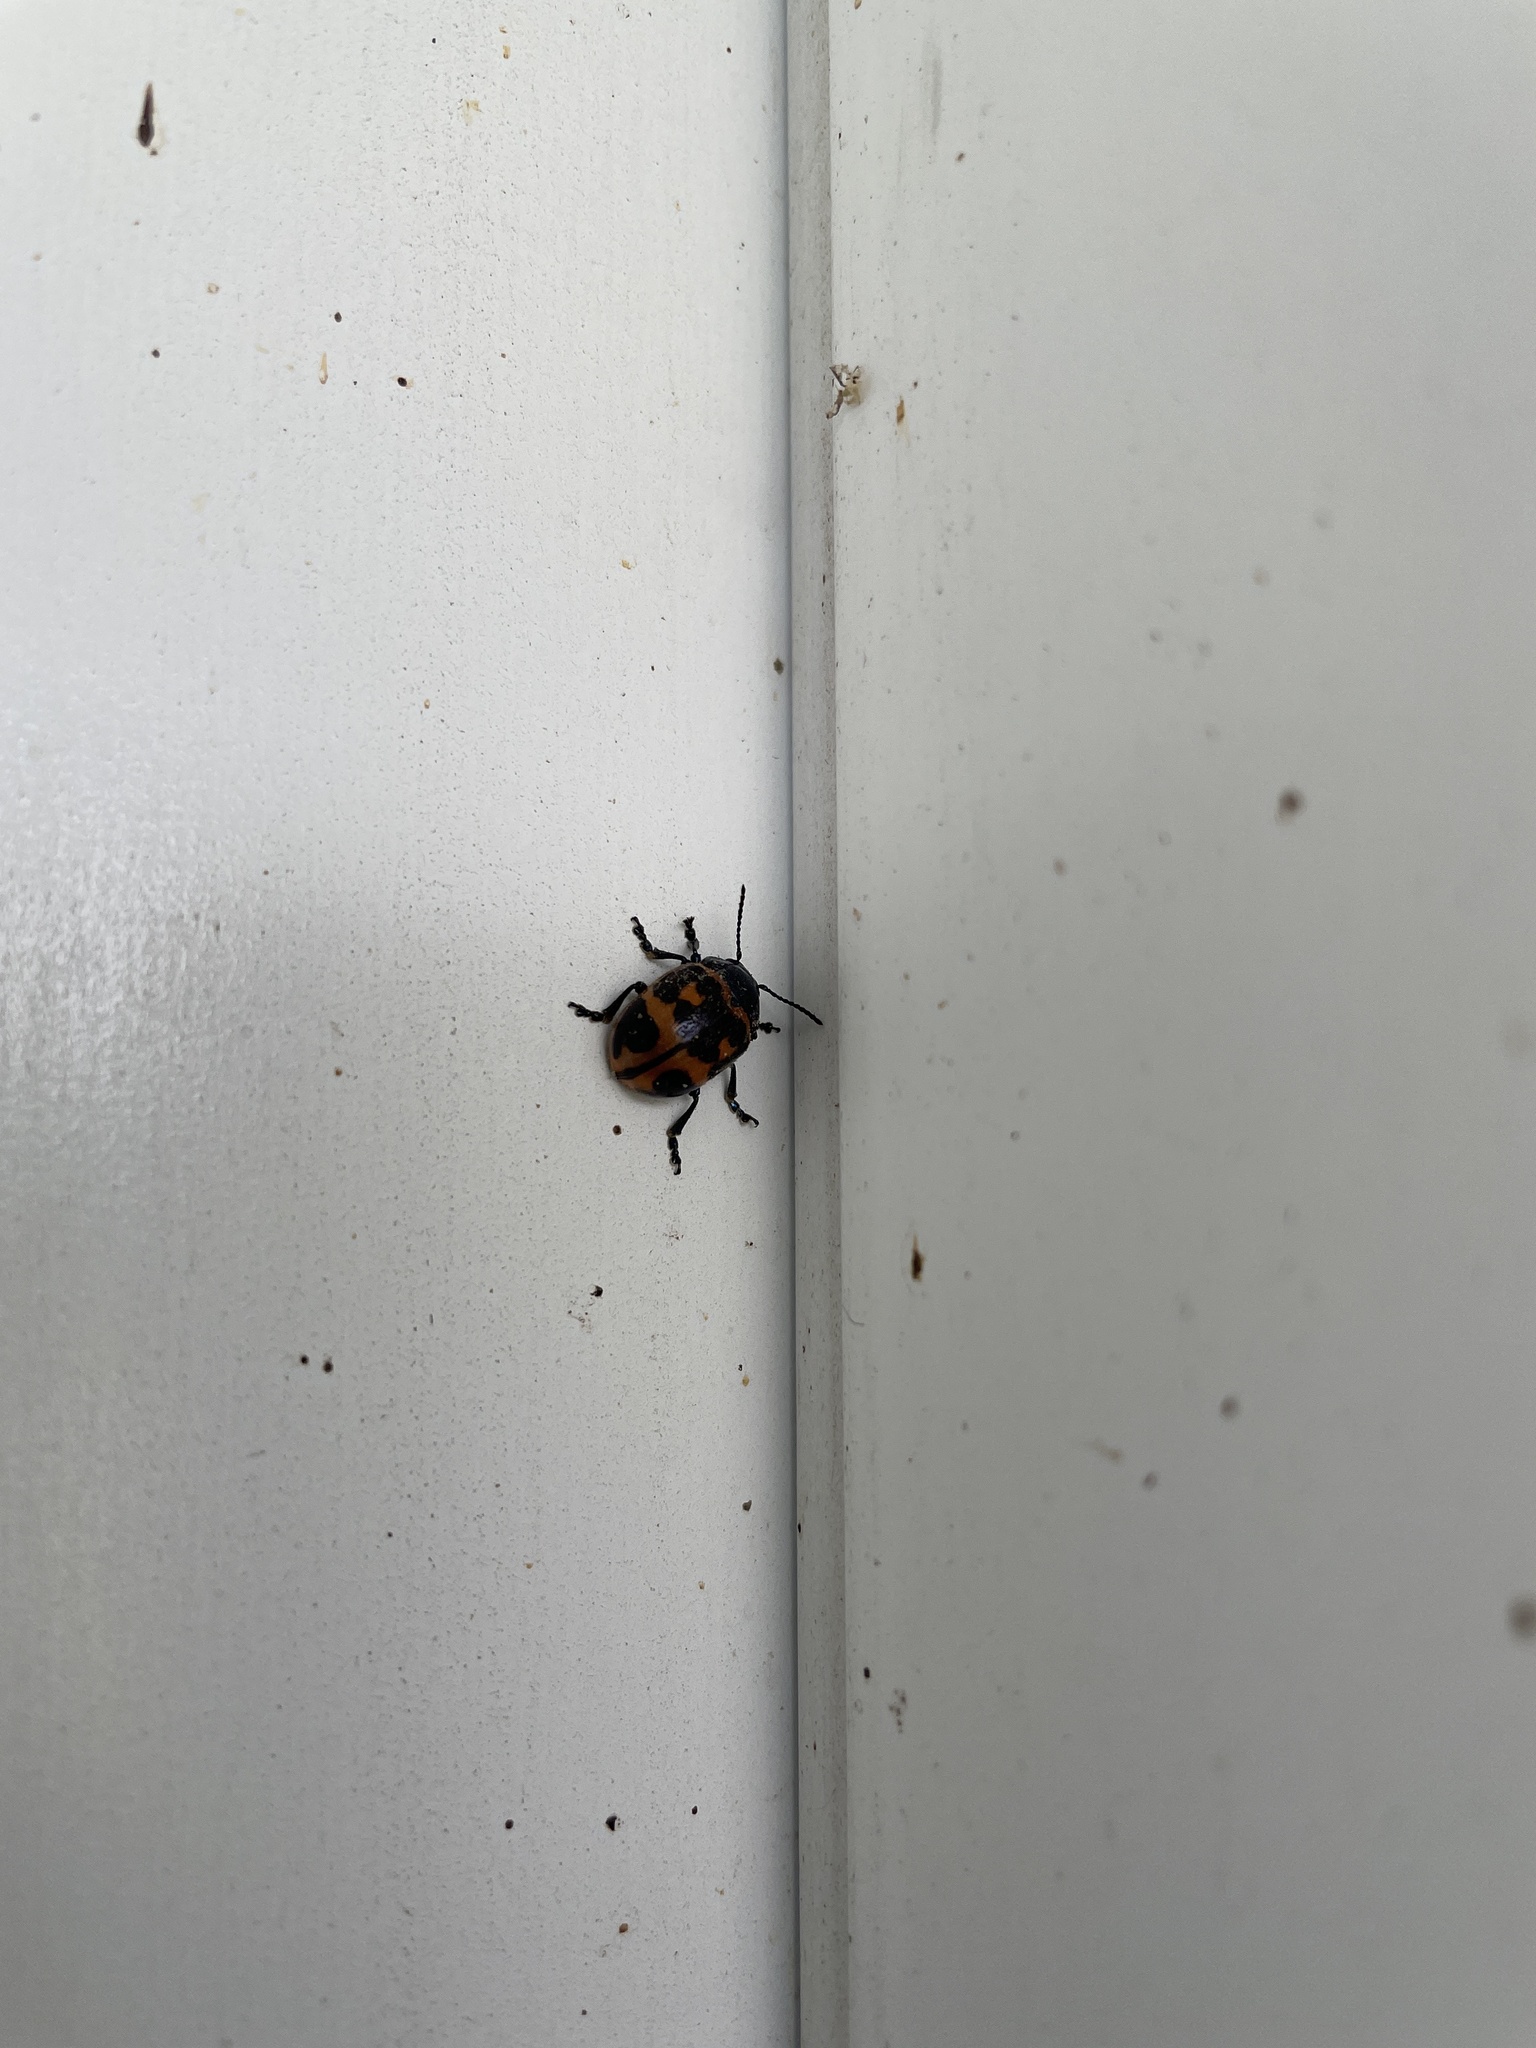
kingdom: Animalia
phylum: Arthropoda
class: Insecta
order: Coleoptera
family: Chrysomelidae
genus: Labidomera
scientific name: Labidomera clivicollis
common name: Swamp milkweed leaf beetle
